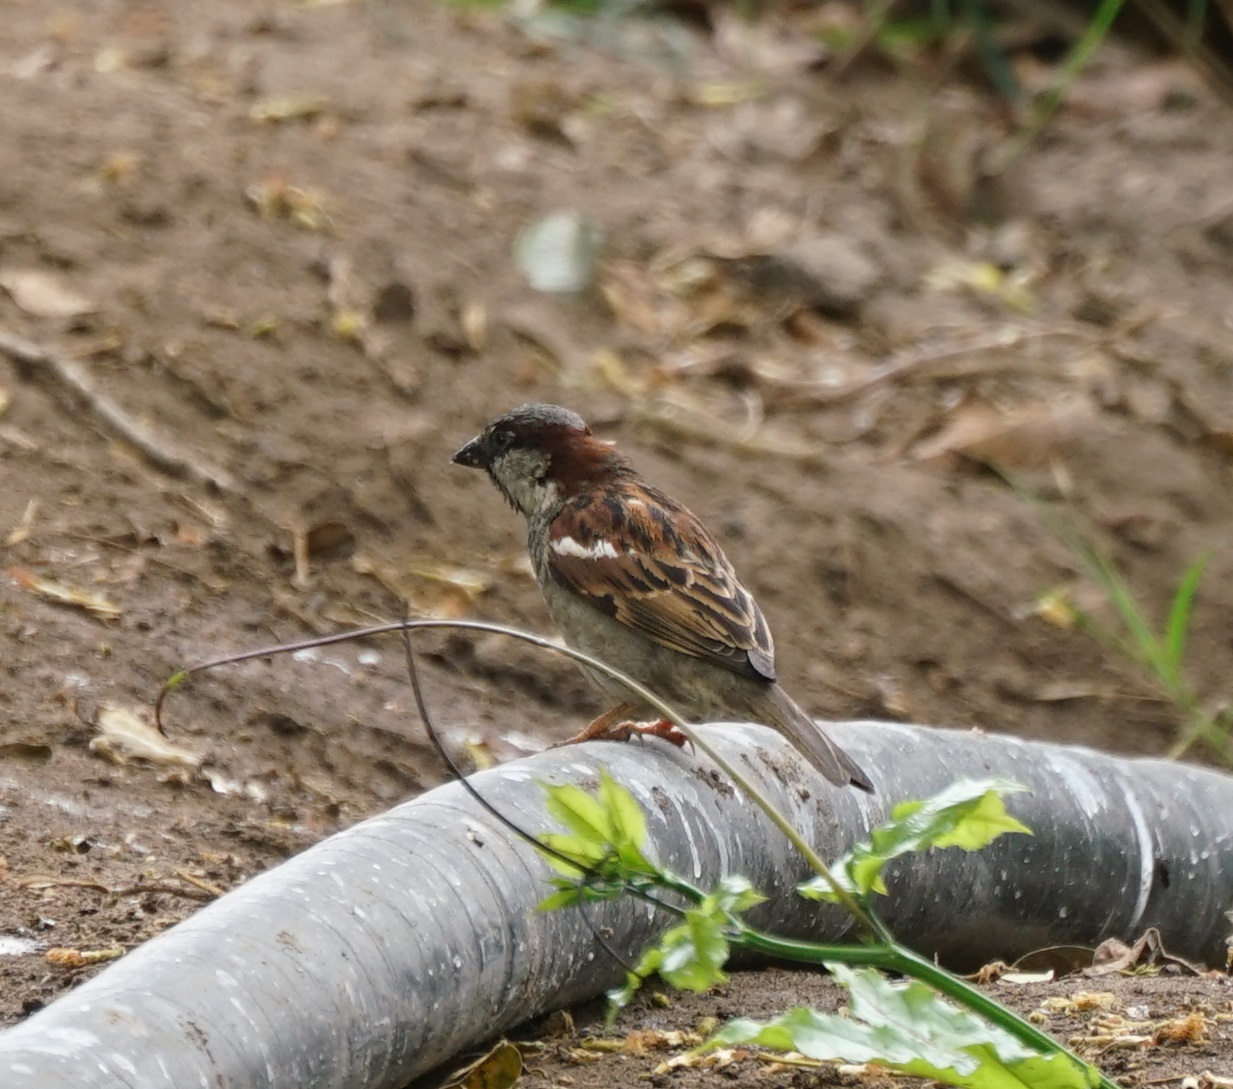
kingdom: Animalia
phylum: Chordata
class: Aves
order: Passeriformes
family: Passeridae
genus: Passer
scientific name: Passer domesticus
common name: House sparrow
